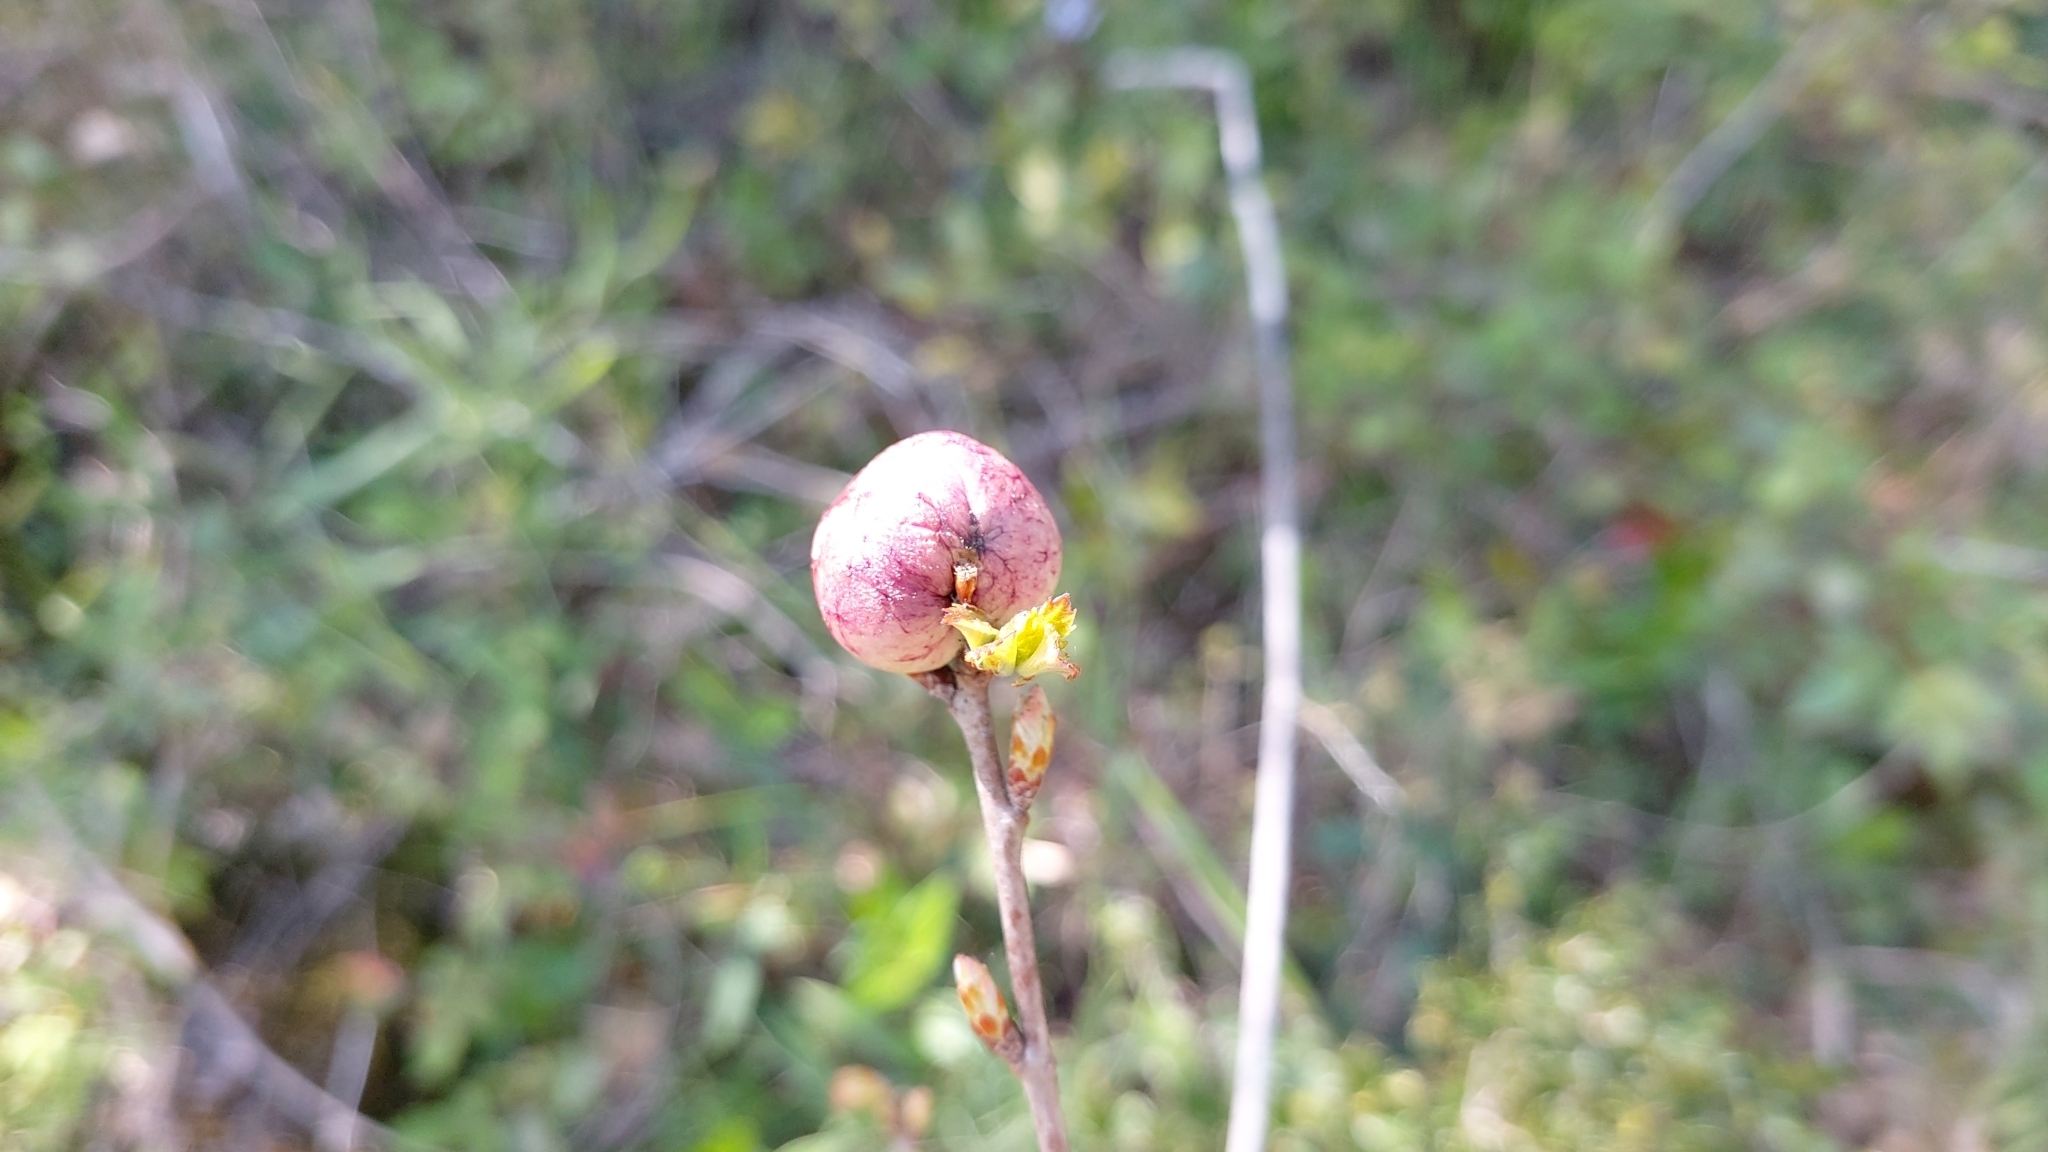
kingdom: Animalia
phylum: Arthropoda
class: Insecta
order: Hymenoptera
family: Cynipidae
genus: Biorhiza
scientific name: Biorhiza pallida
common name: Oak apple
